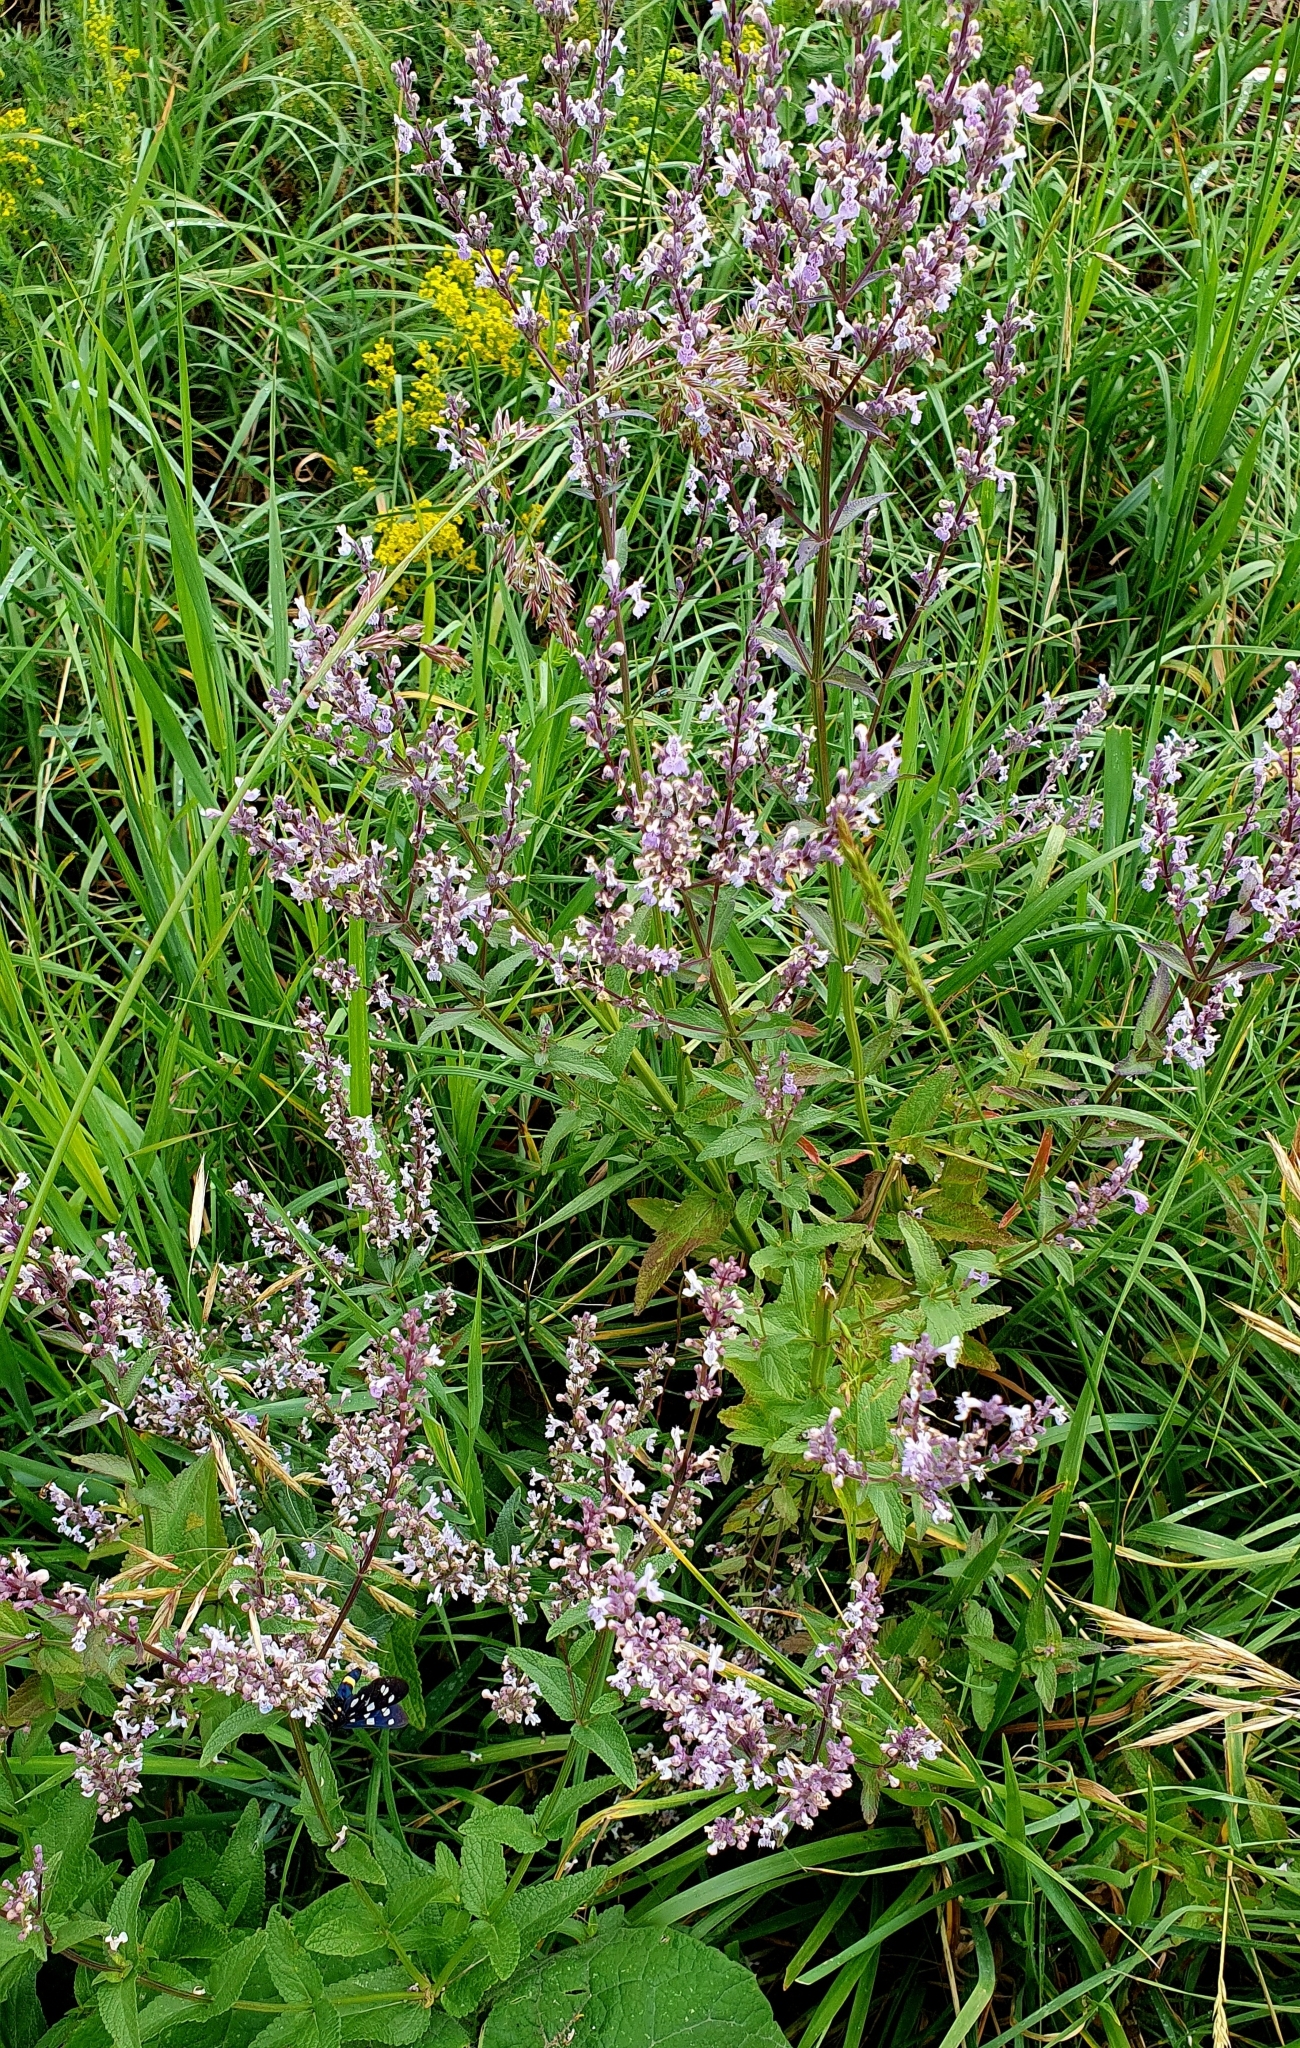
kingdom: Plantae
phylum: Tracheophyta
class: Magnoliopsida
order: Lamiales
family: Lamiaceae
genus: Nepeta
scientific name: Nepeta nuda
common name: Hairless catmint
